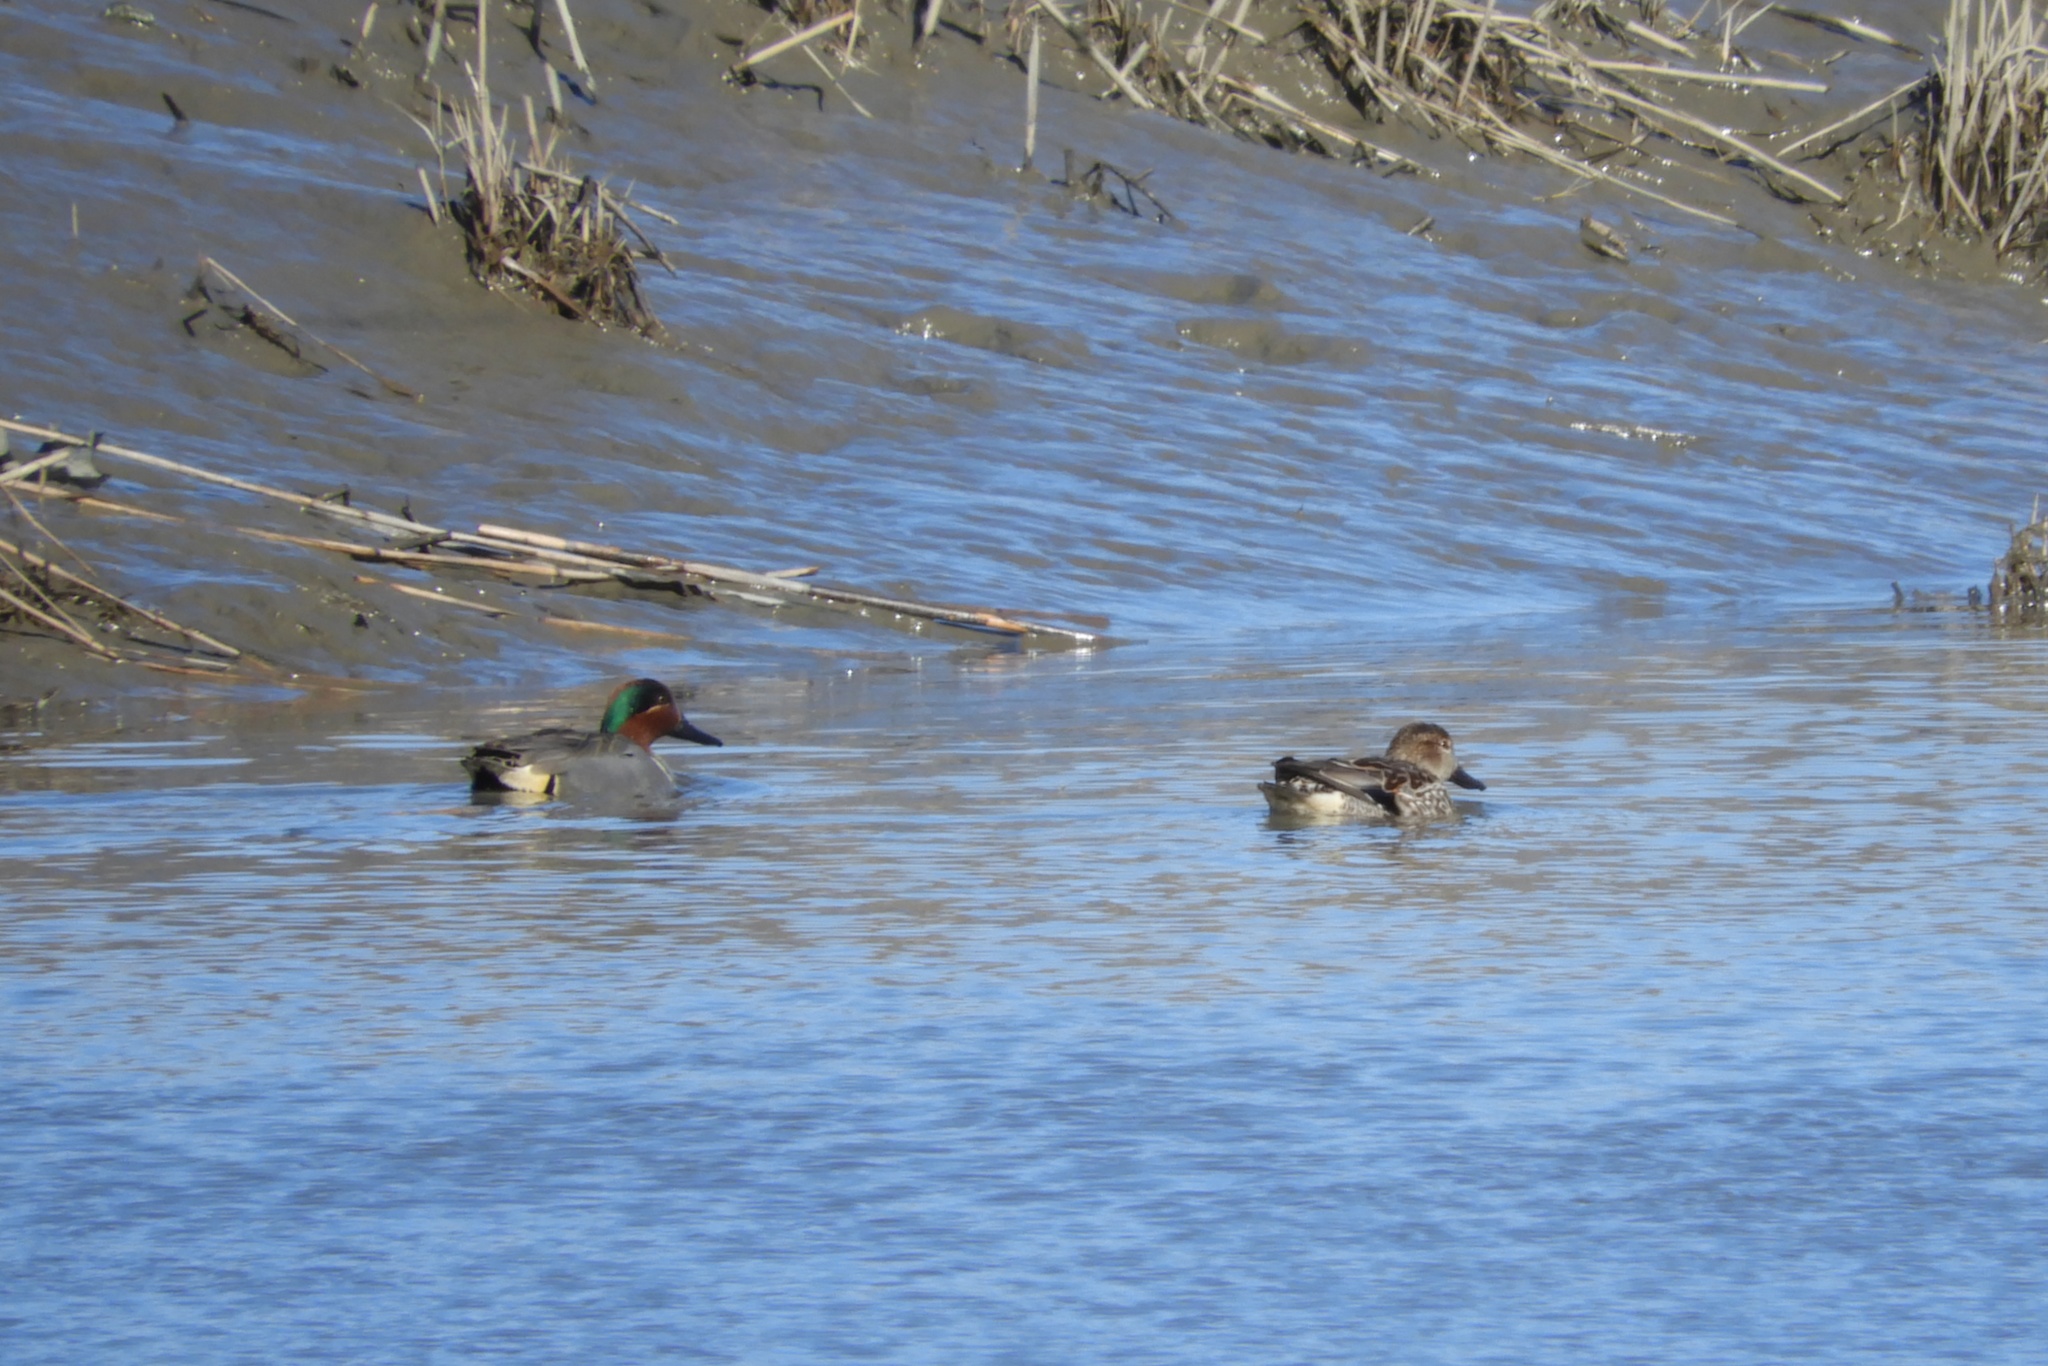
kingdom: Animalia
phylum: Chordata
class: Aves
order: Anseriformes
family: Anatidae
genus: Anas
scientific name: Anas crecca
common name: Eurasian teal
